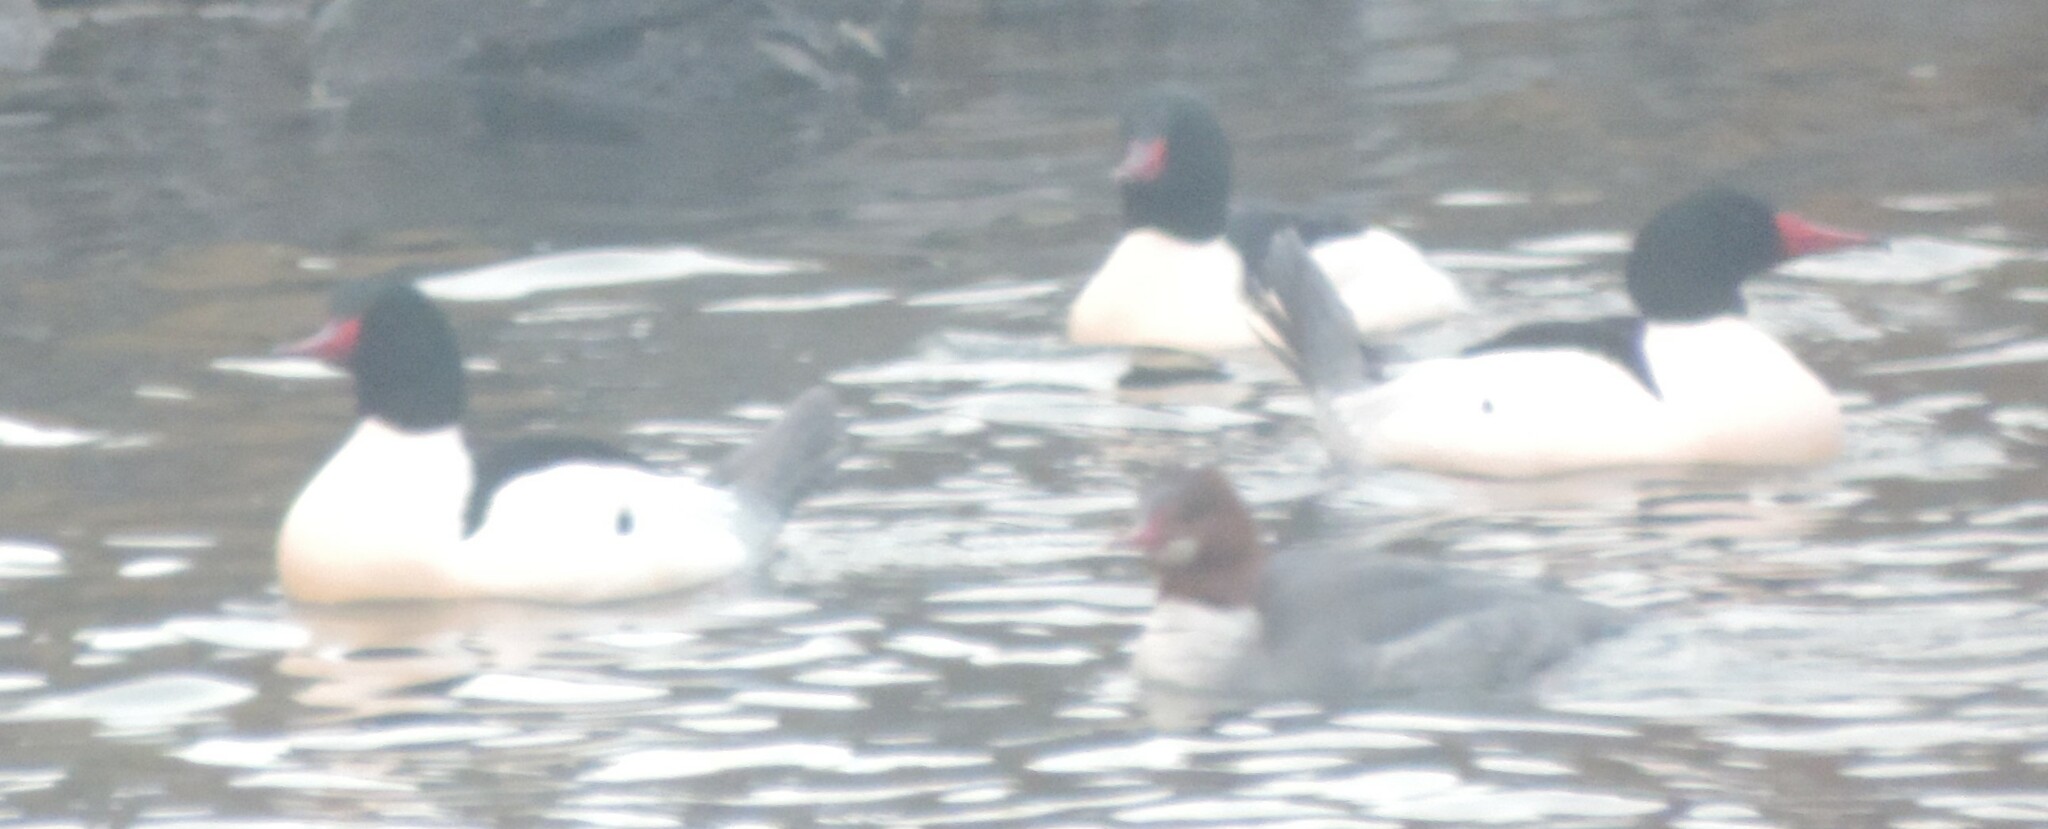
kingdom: Animalia
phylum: Chordata
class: Aves
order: Anseriformes
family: Anatidae
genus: Mergus
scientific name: Mergus merganser
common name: Common merganser
